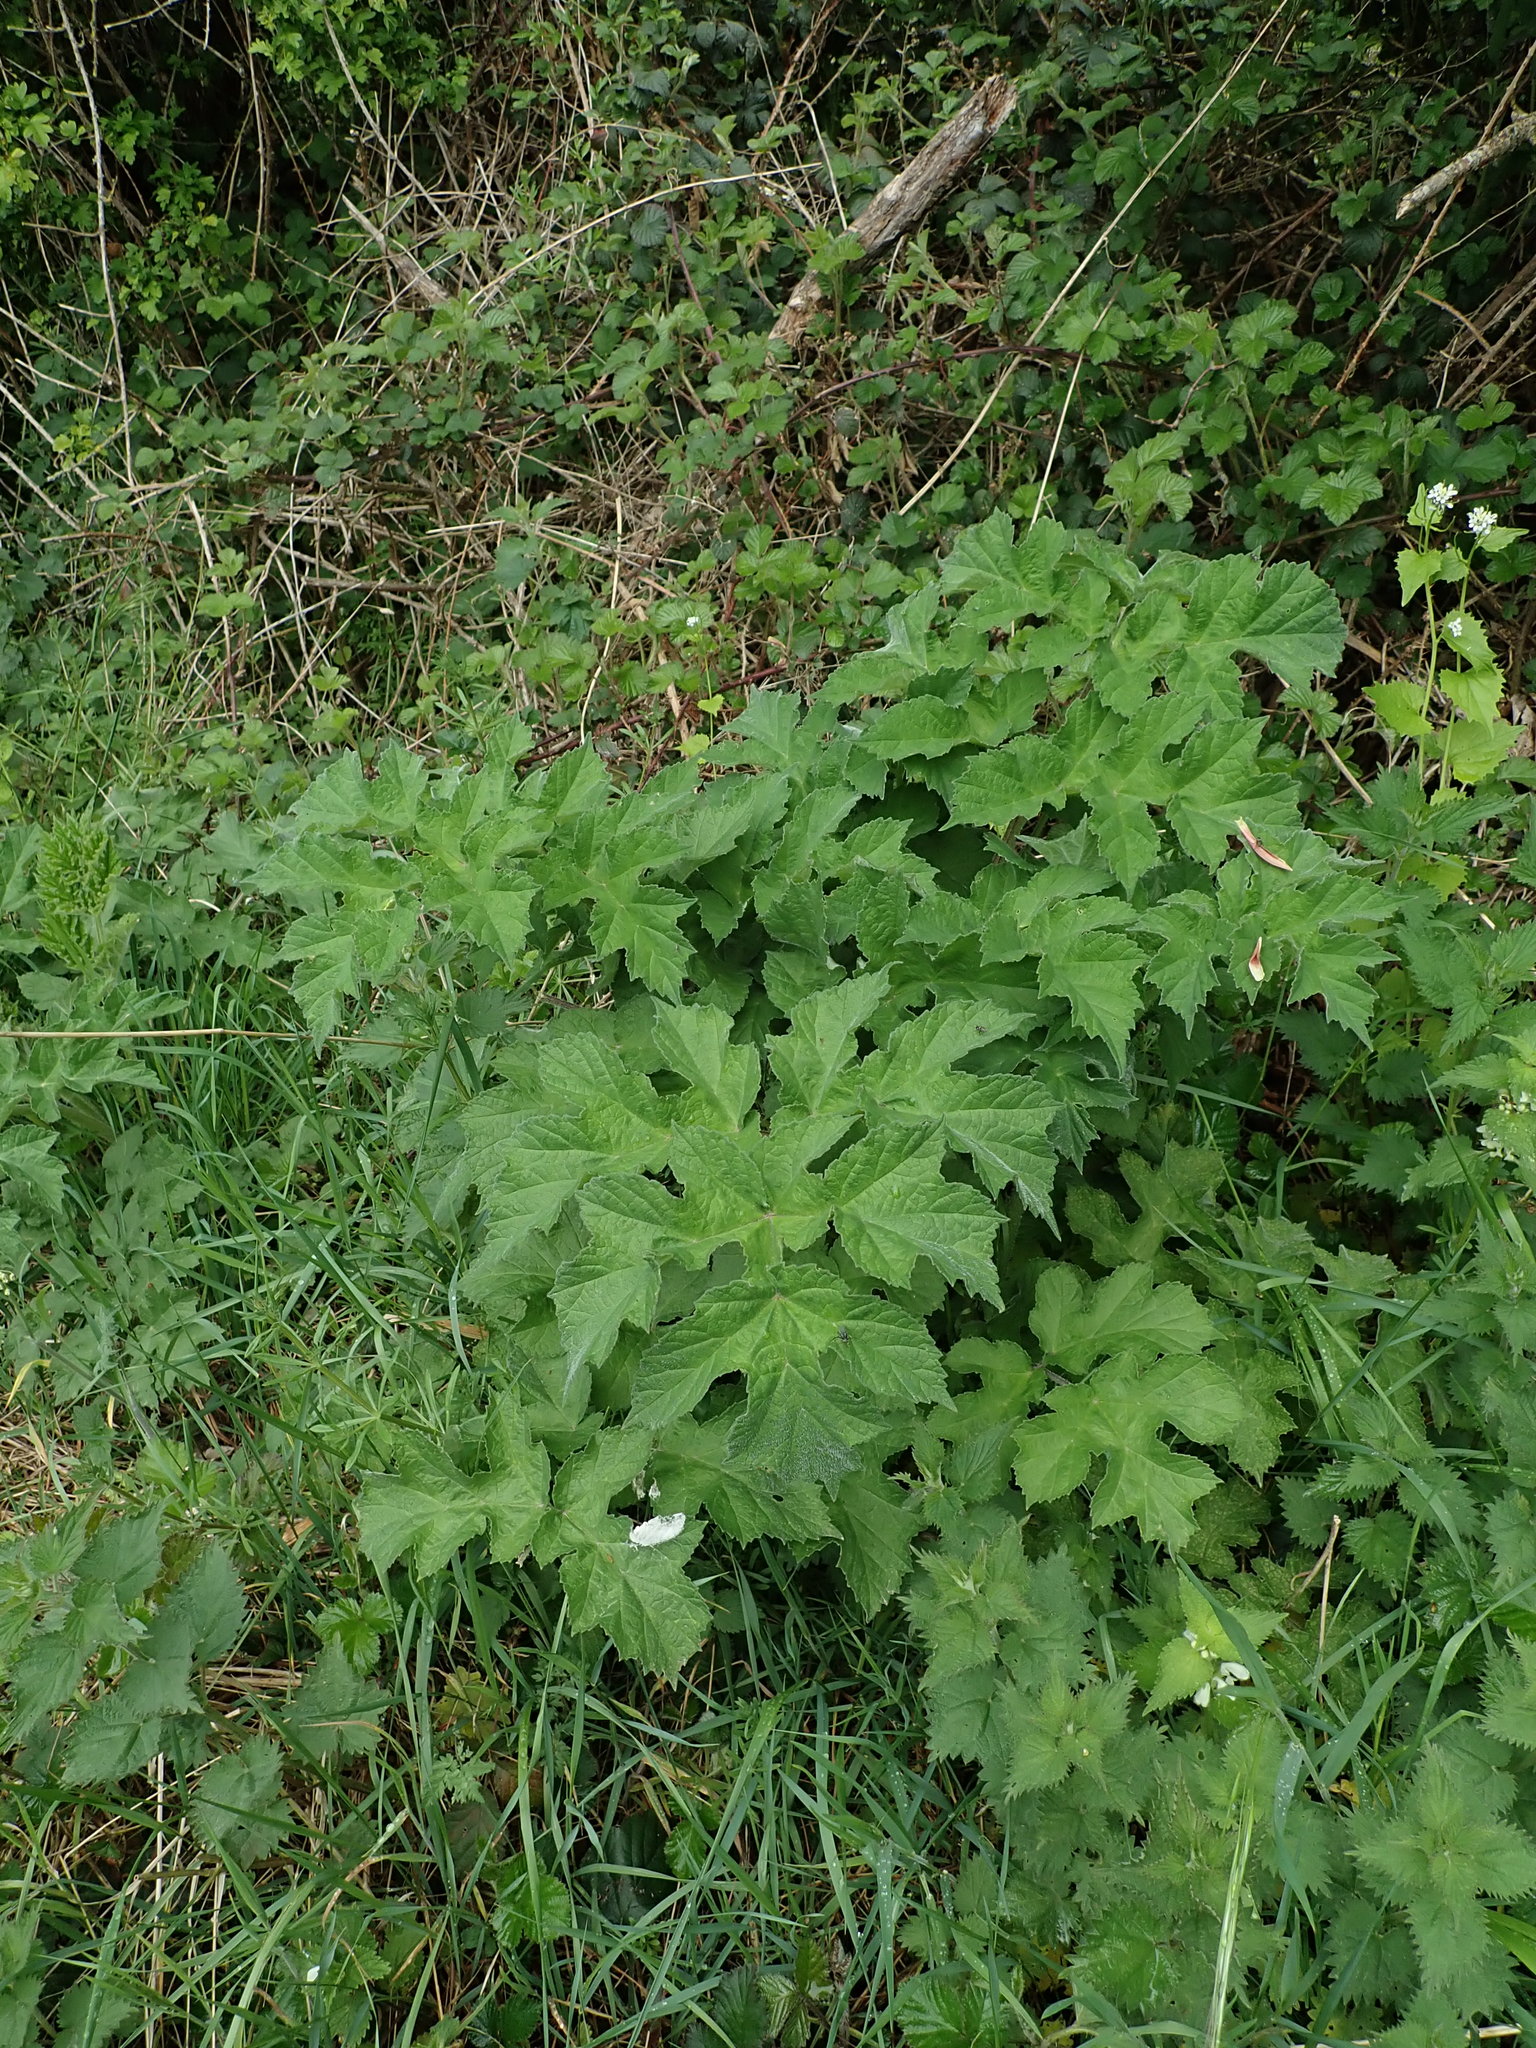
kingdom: Plantae
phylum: Tracheophyta
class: Magnoliopsida
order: Apiales
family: Apiaceae
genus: Heracleum
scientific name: Heracleum sphondylium
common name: Hogweed
